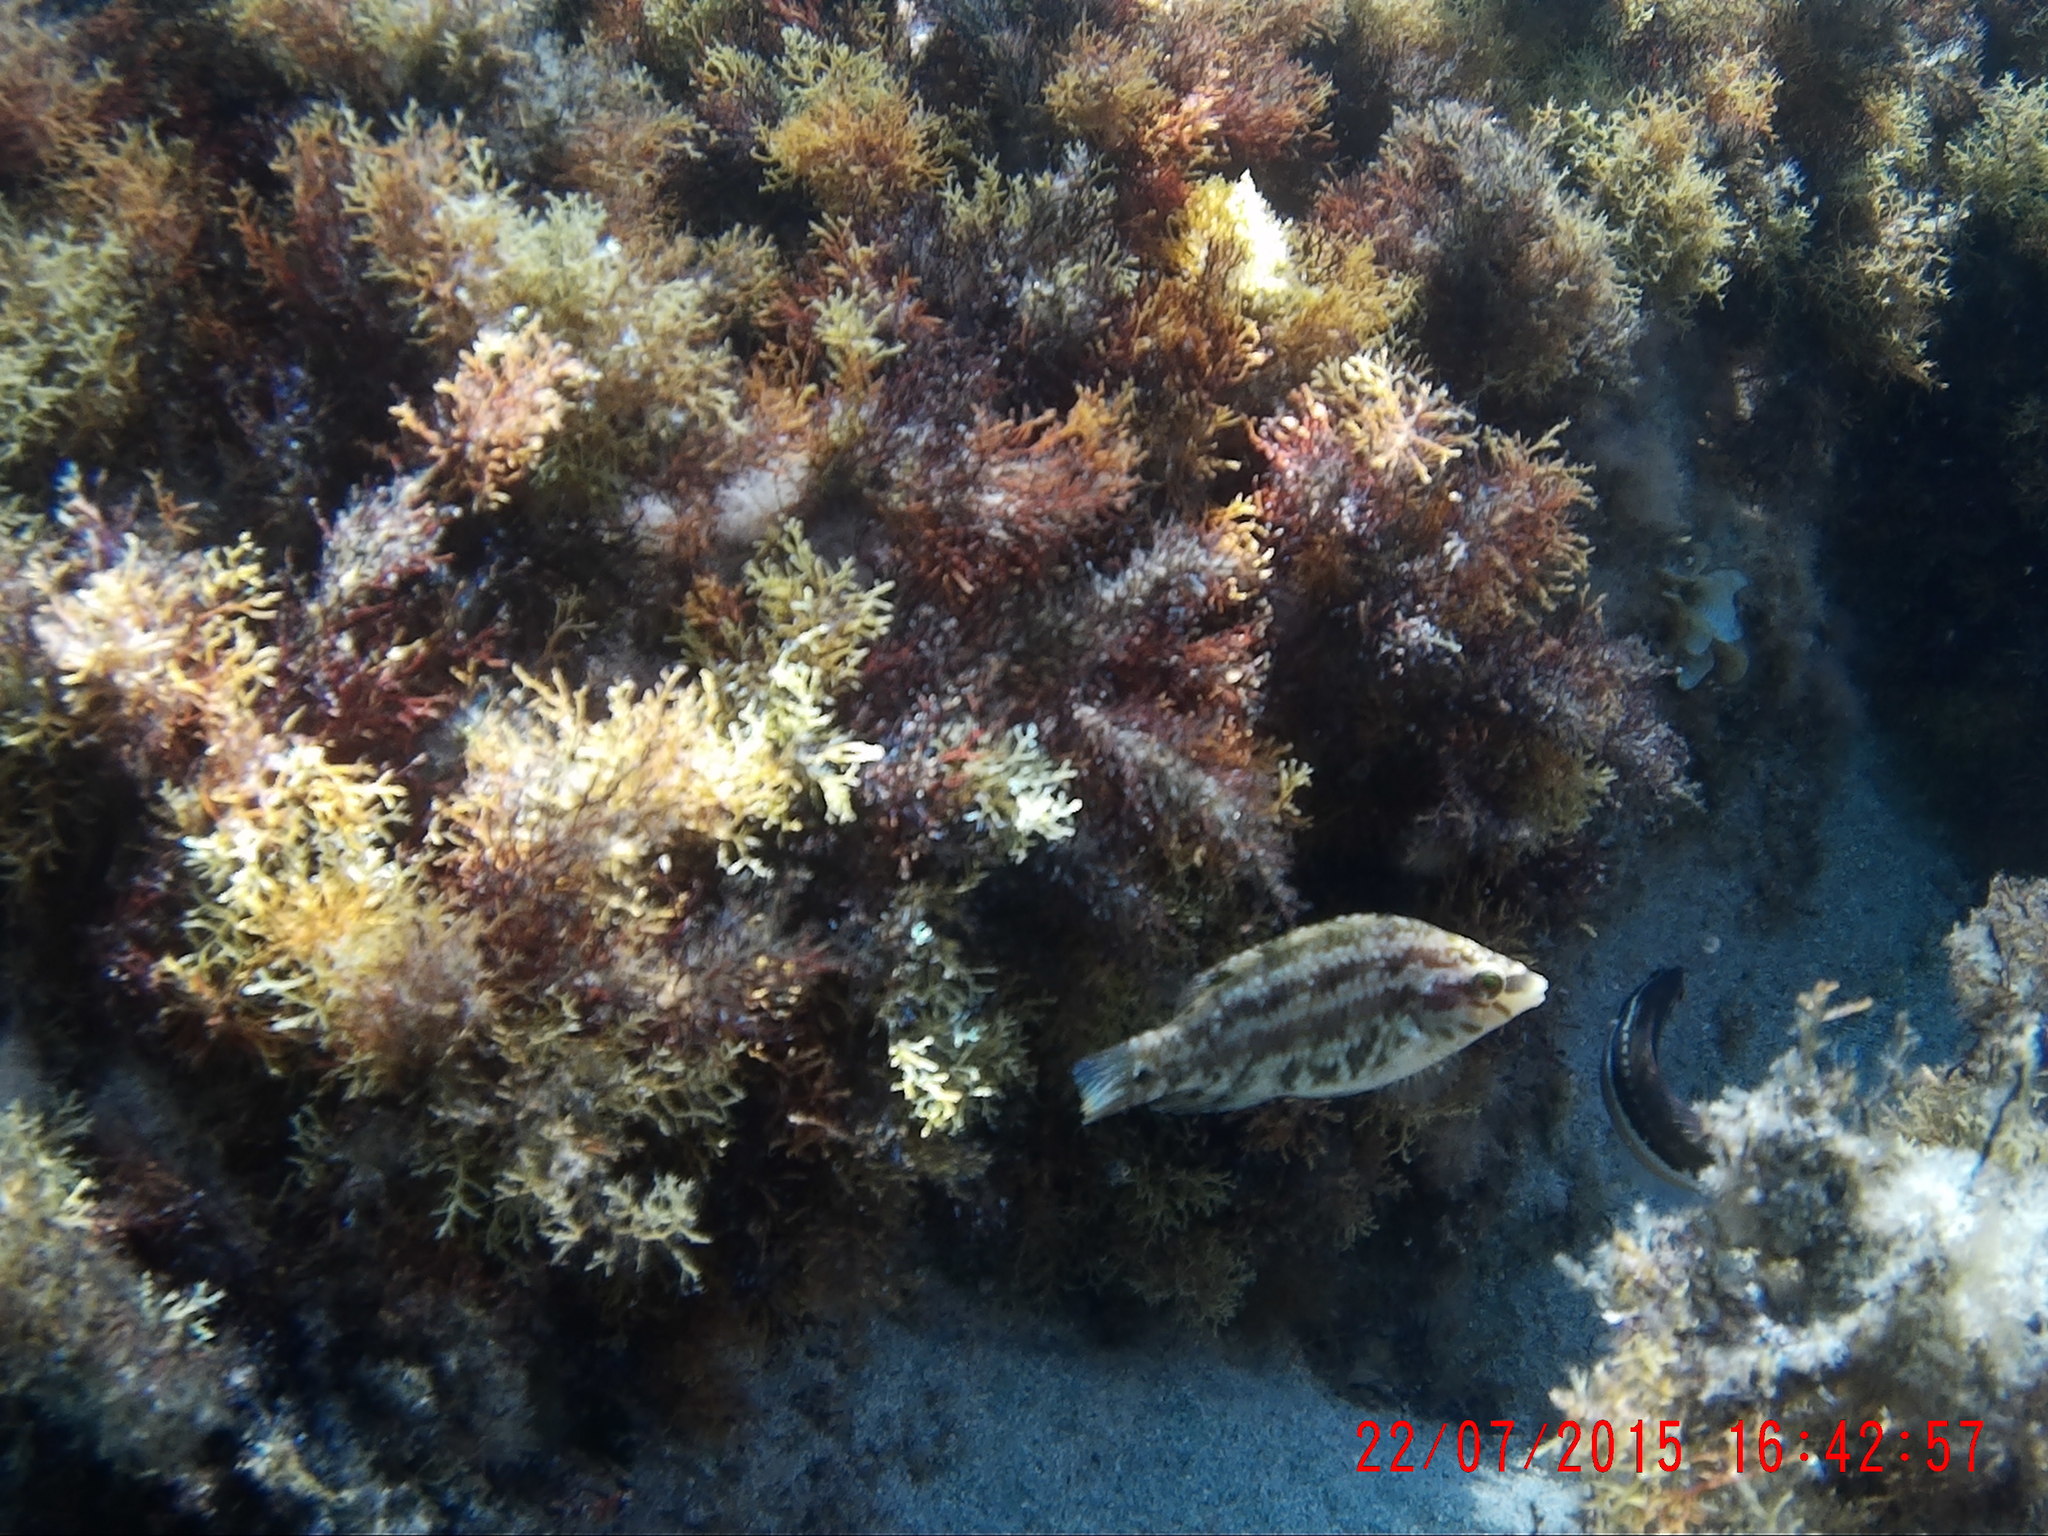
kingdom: Animalia
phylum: Chordata
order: Perciformes
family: Labridae
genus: Symphodus
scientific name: Symphodus roissali
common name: Five-spotted wrasse
